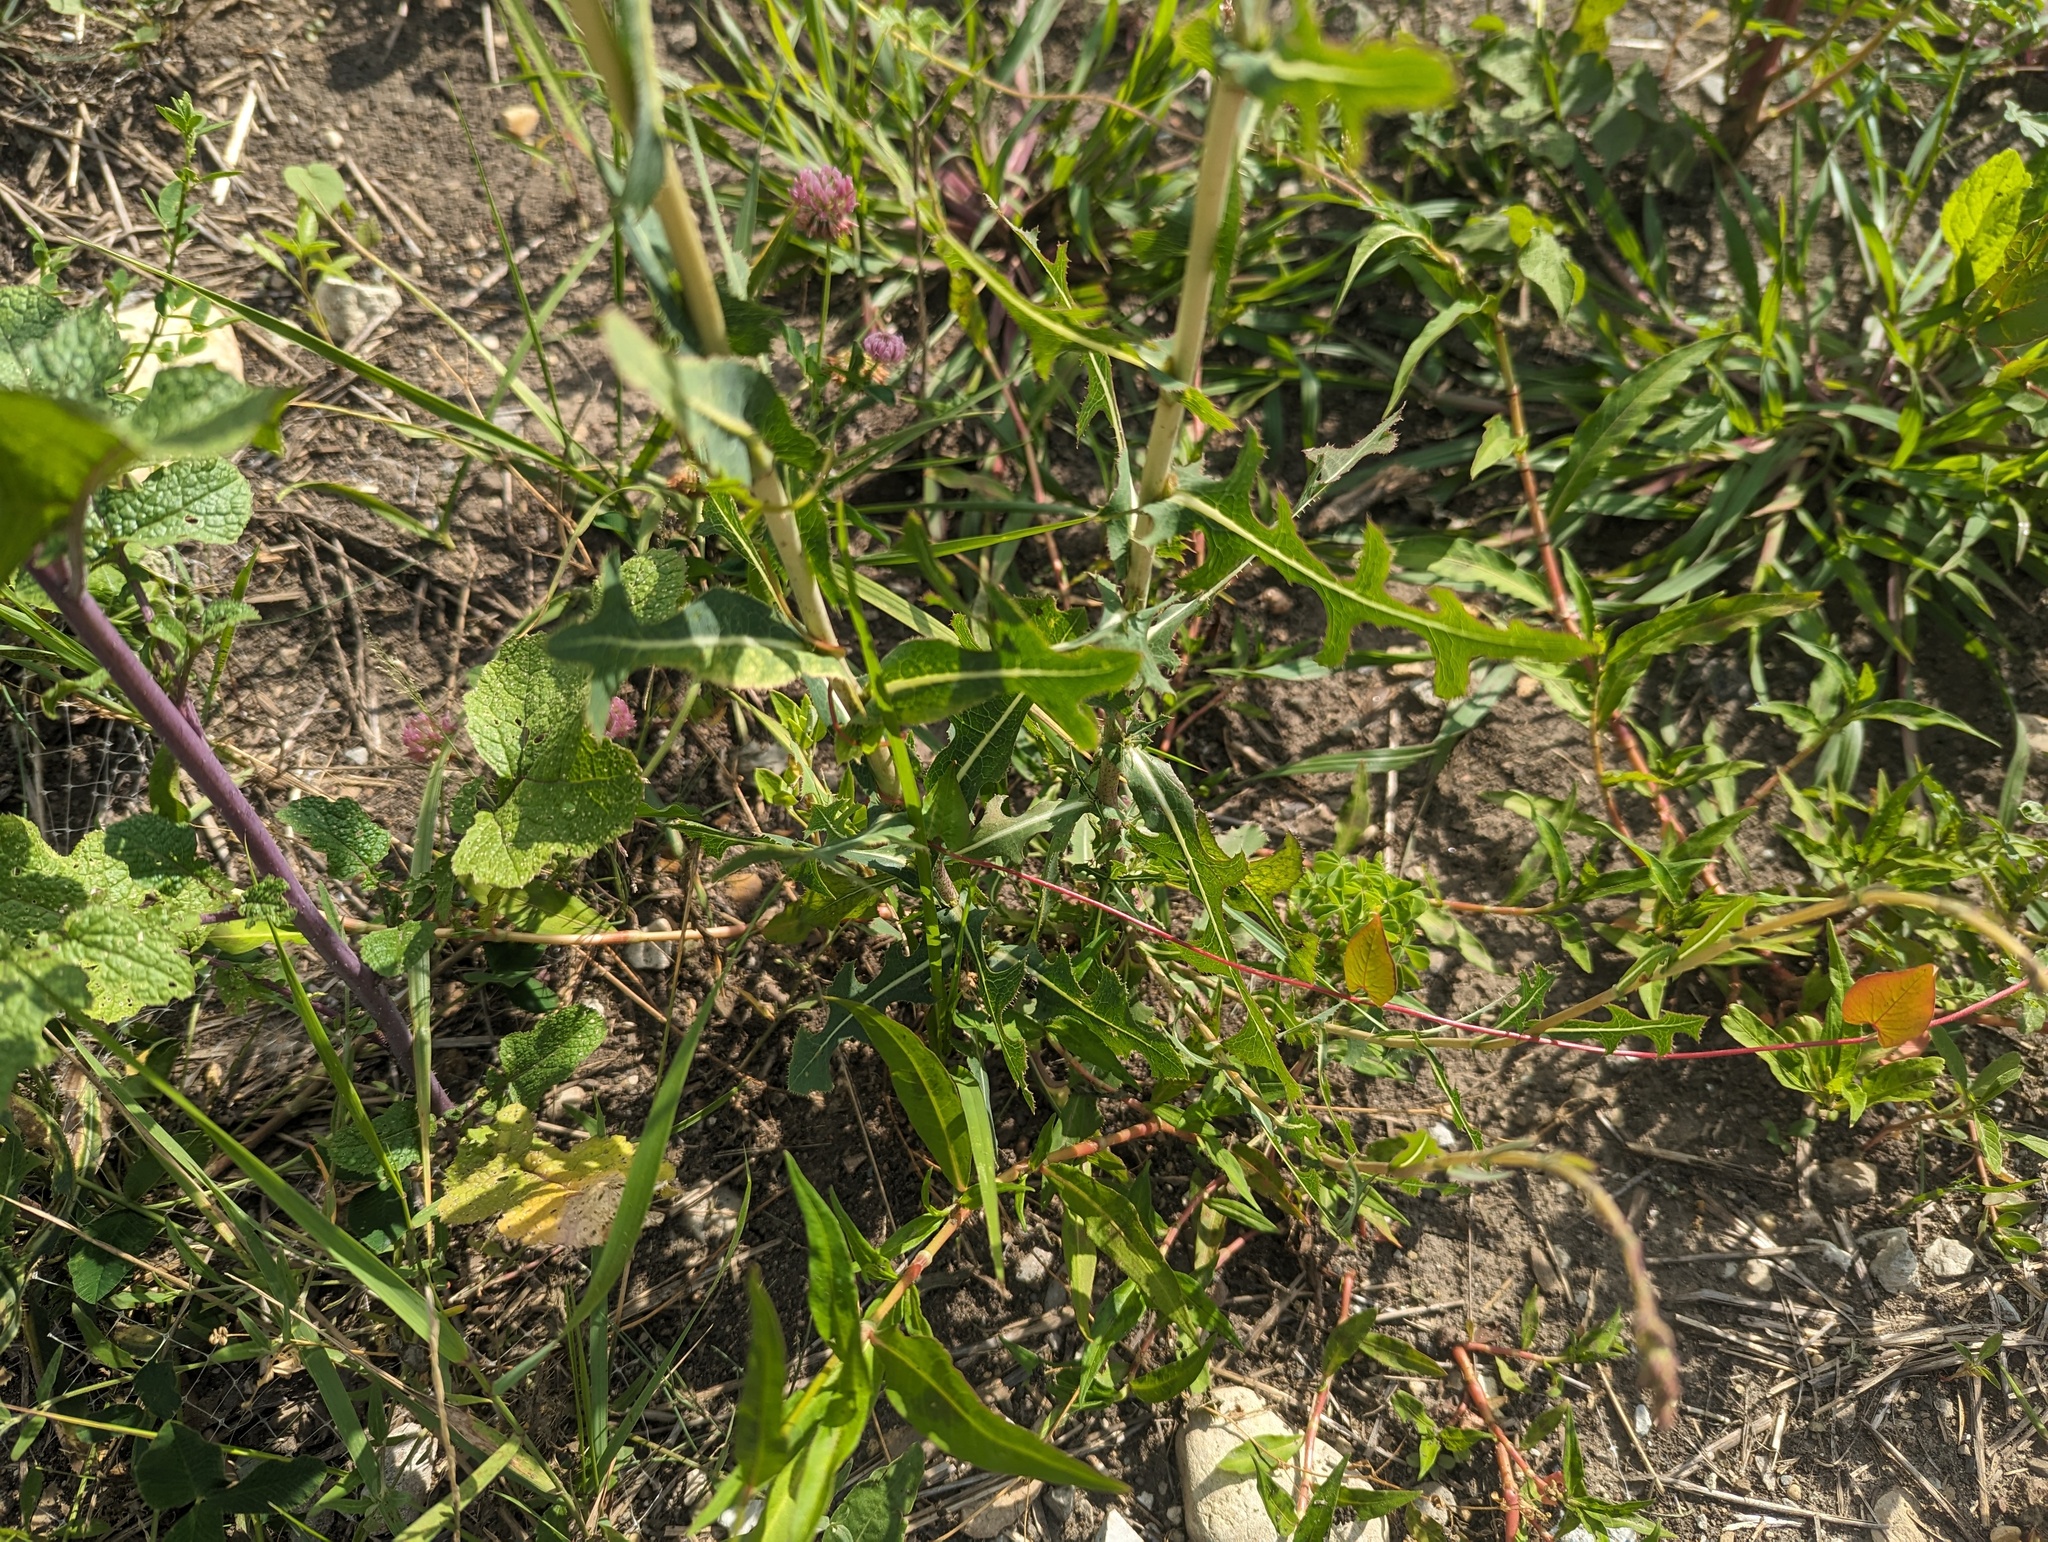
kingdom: Plantae
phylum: Tracheophyta
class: Magnoliopsida
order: Asterales
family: Asteraceae
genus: Lactuca
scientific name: Lactuca serriola
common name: Prickly lettuce
